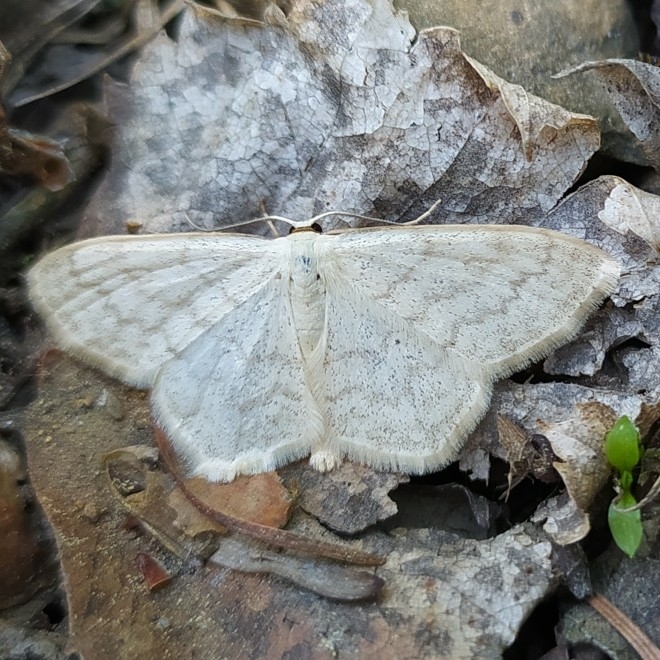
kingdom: Animalia
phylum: Arthropoda
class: Insecta
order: Lepidoptera
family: Geometridae
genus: Scopula
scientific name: Scopula floslactata
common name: Cream wave
